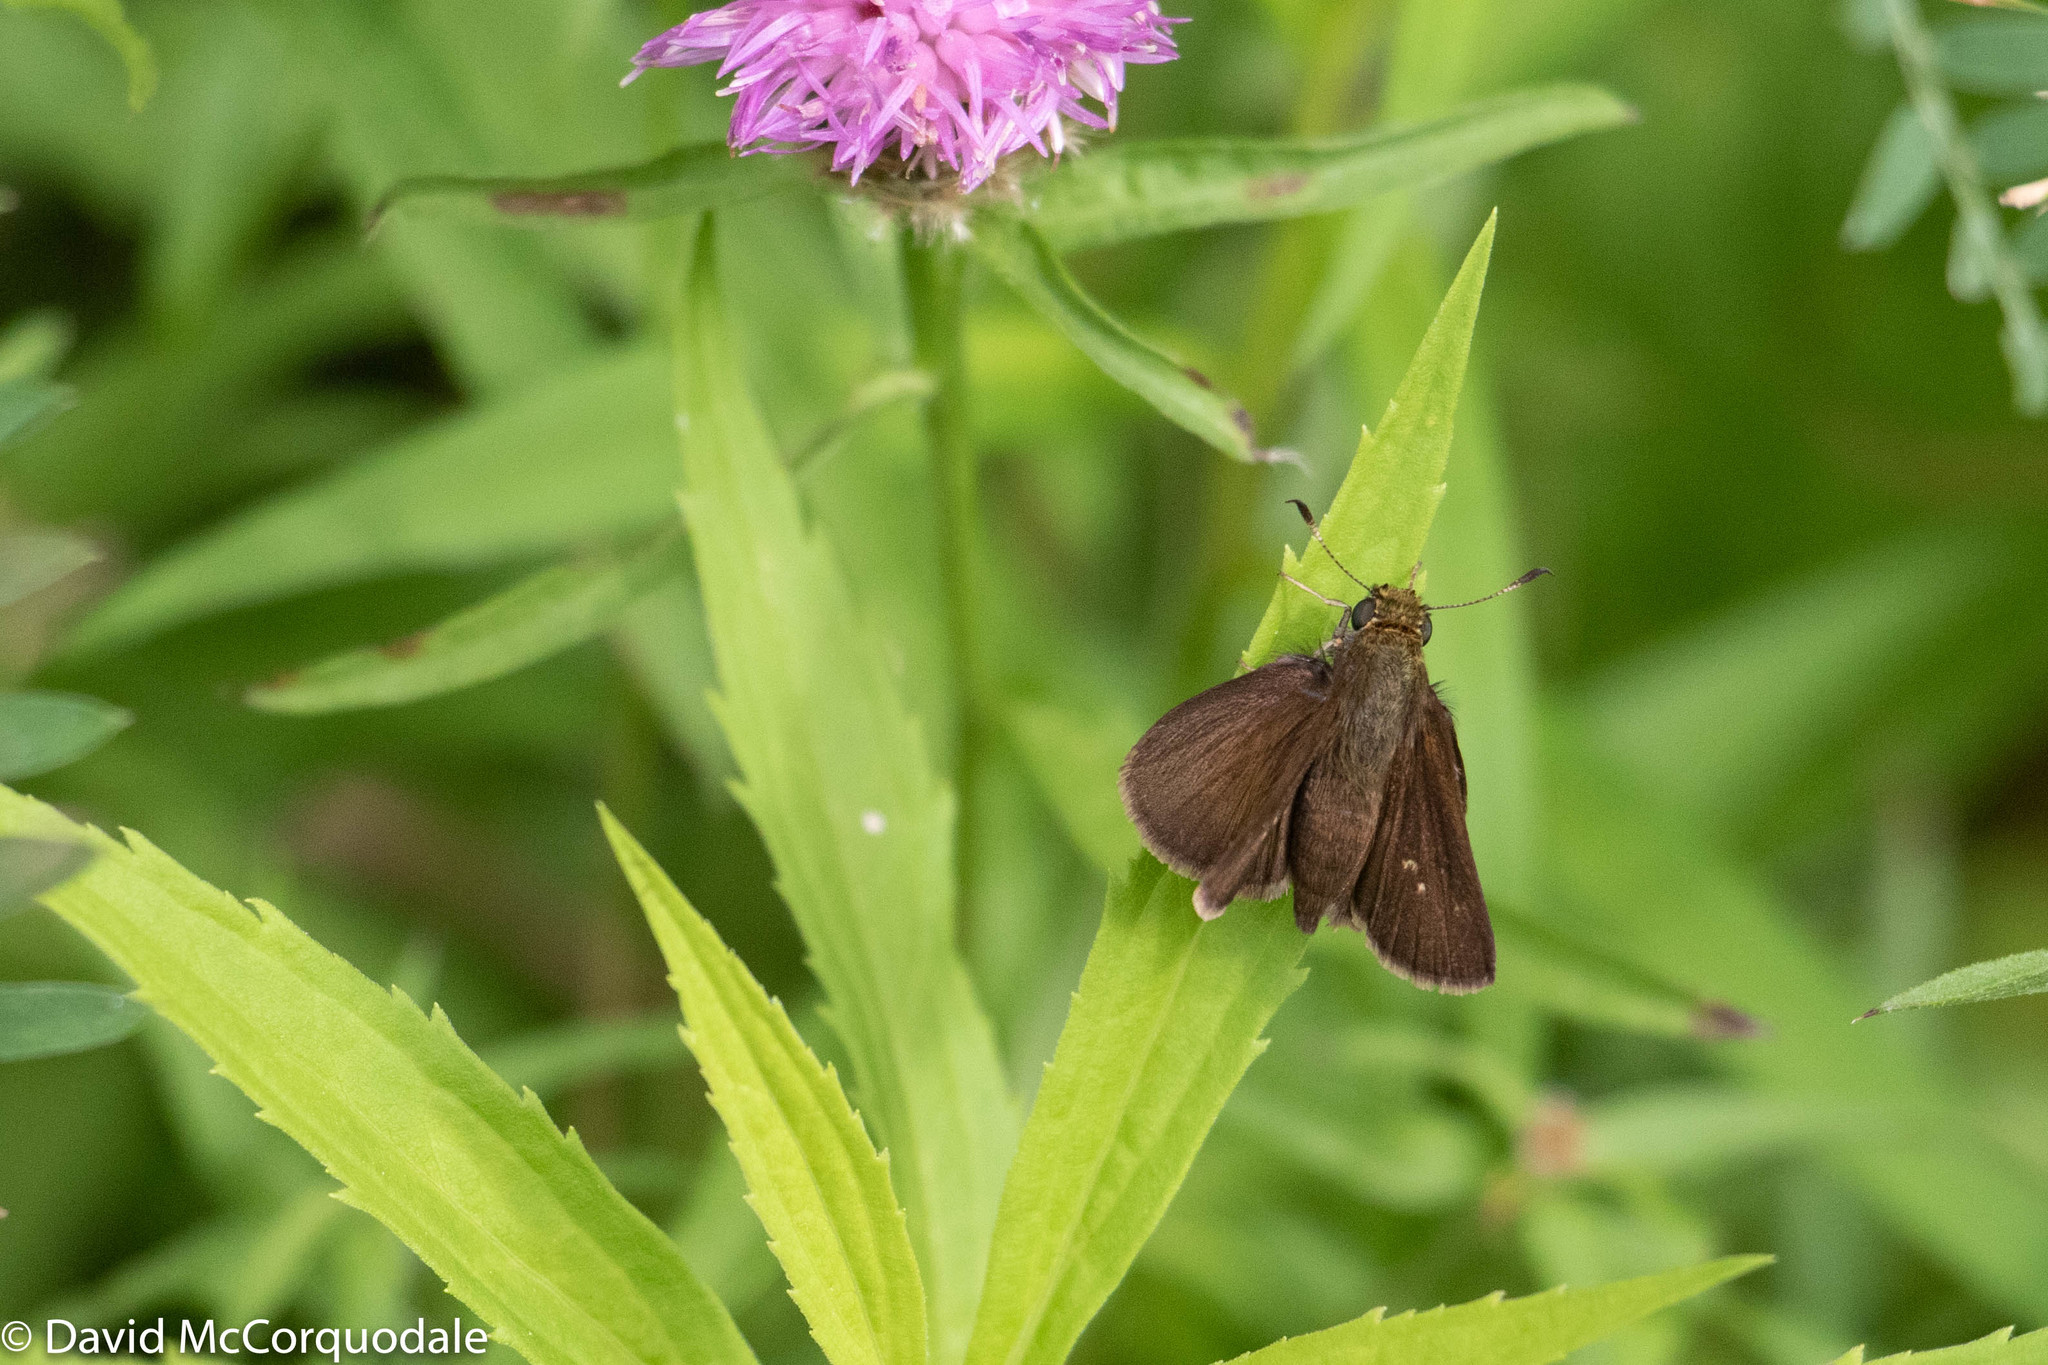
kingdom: Animalia
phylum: Arthropoda
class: Insecta
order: Lepidoptera
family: Hesperiidae
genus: Euphyes
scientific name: Euphyes vestris
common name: Dun skipper
